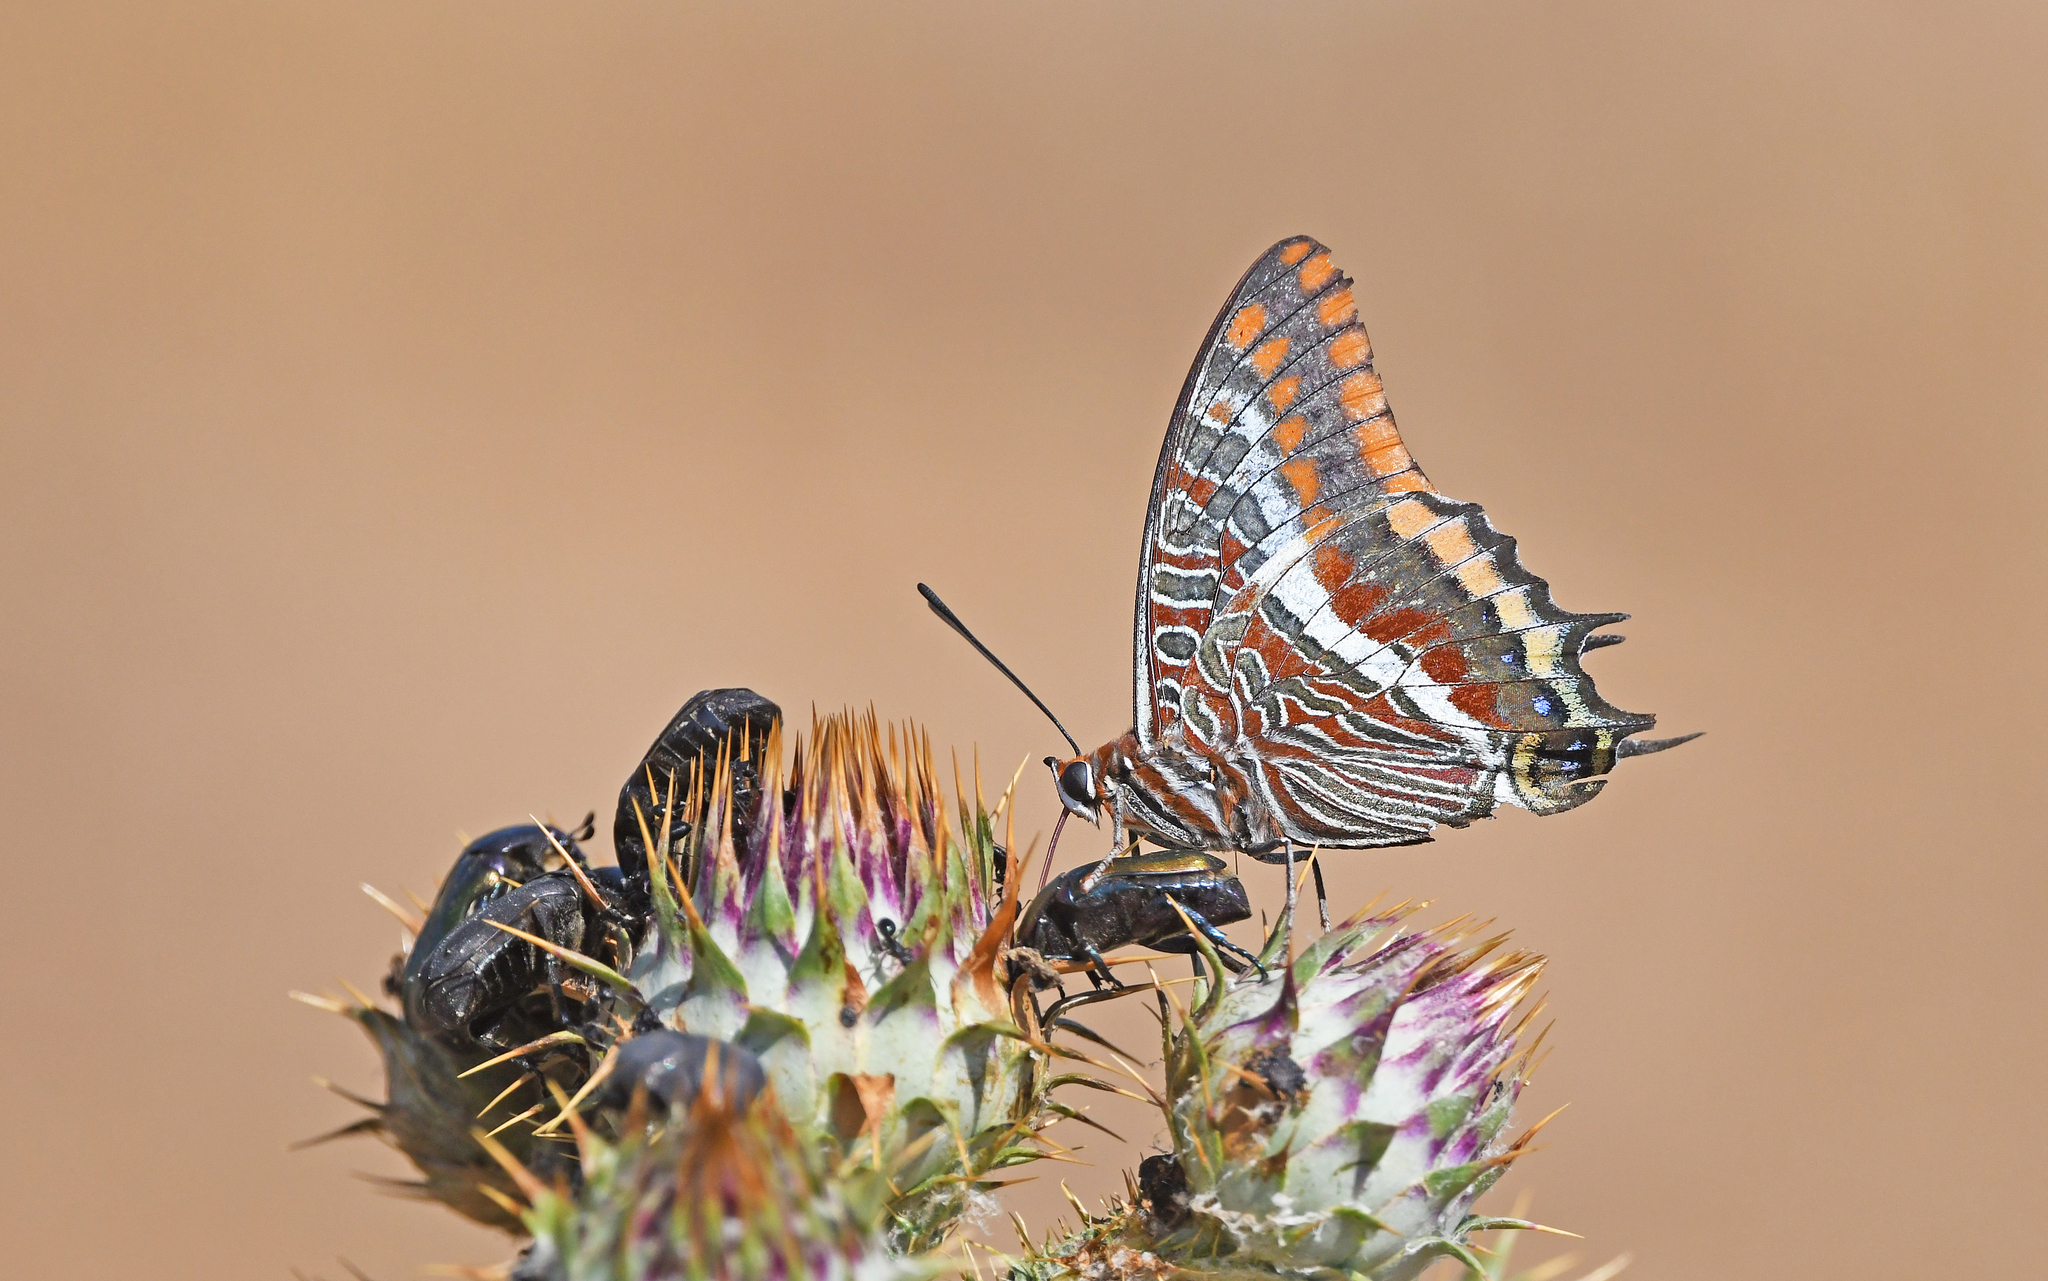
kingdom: Animalia
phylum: Arthropoda
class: Insecta
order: Lepidoptera
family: Nymphalidae
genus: Charaxes
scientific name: Charaxes jasius
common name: Two tailed pasha
